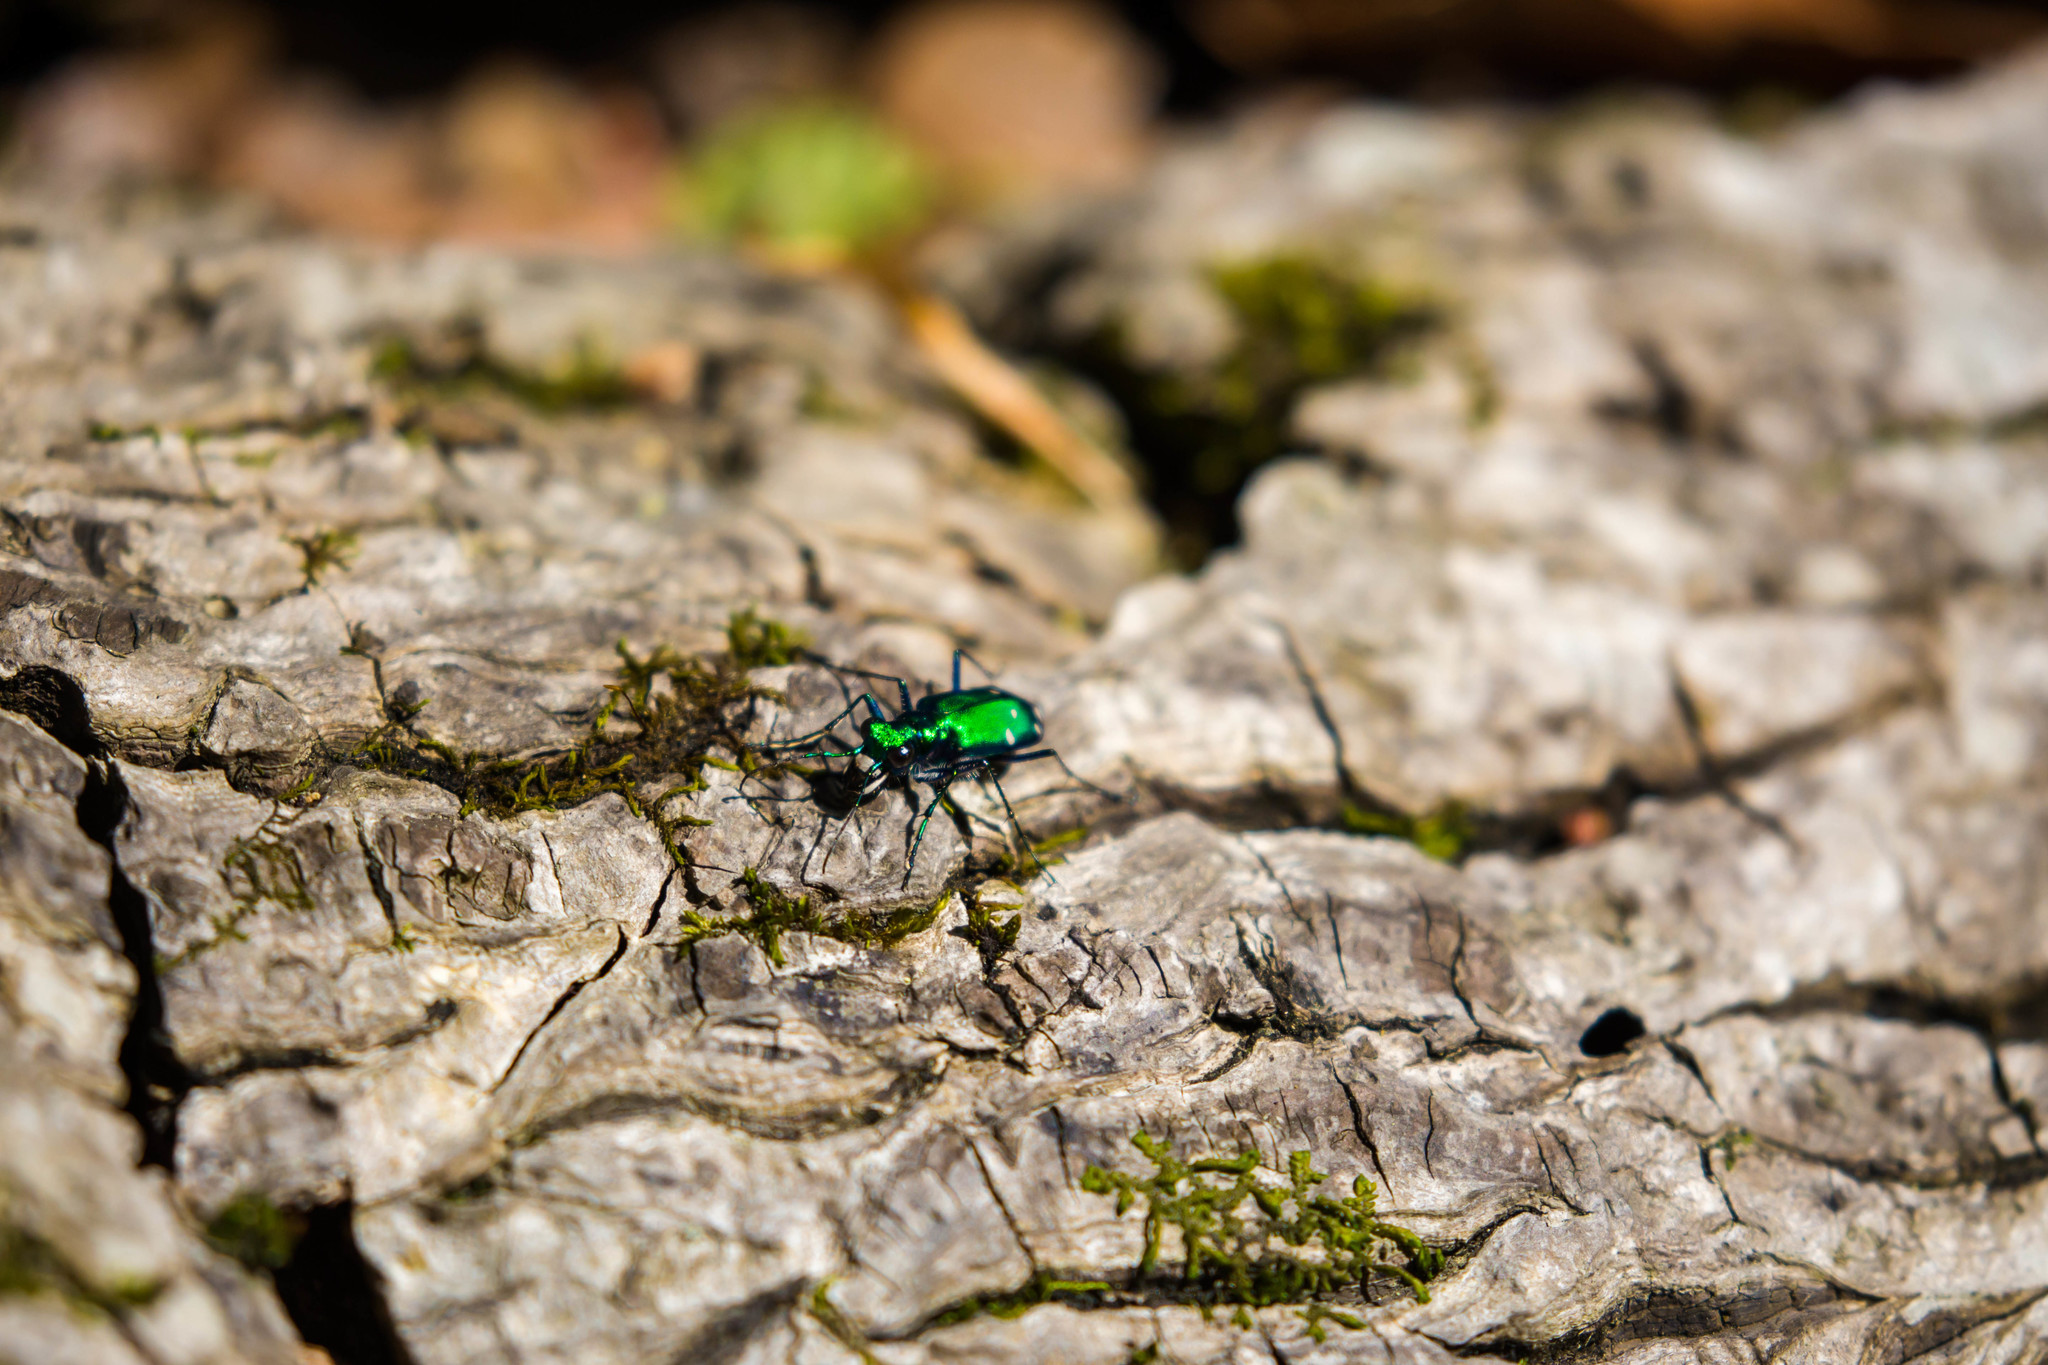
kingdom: Animalia
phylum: Arthropoda
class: Insecta
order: Coleoptera
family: Carabidae
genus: Cicindela
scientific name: Cicindela sexguttata
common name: Six-spotted tiger beetle
